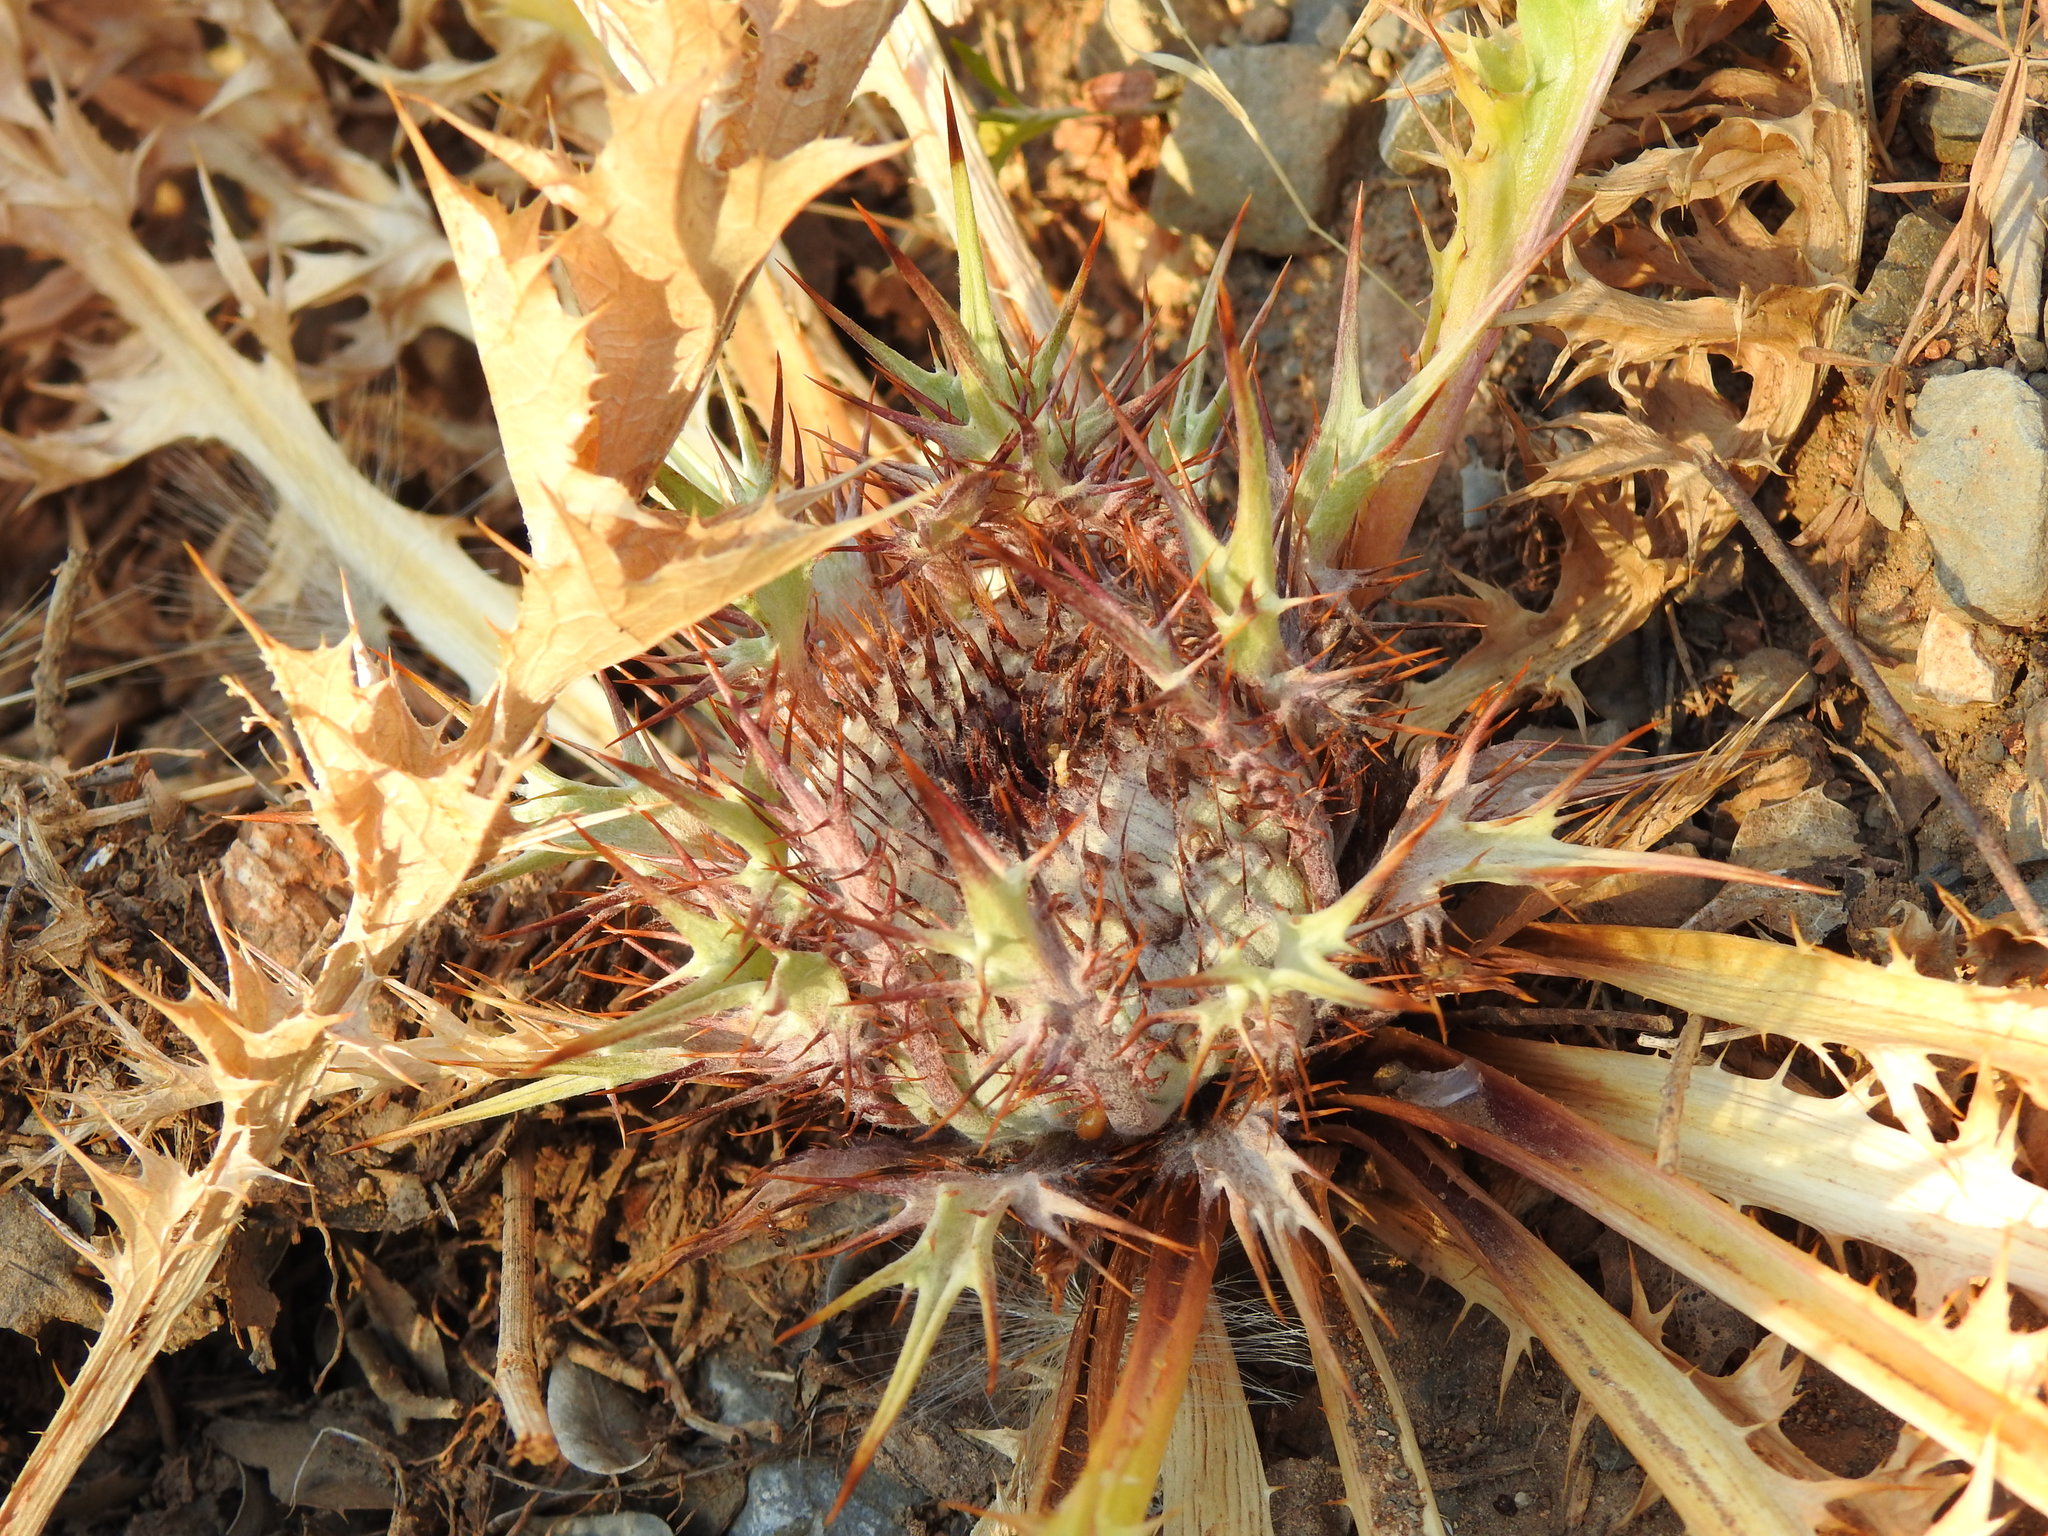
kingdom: Plantae
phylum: Tracheophyta
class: Magnoliopsida
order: Asterales
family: Asteraceae
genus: Chamaeleon
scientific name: Chamaeleon gummifer
